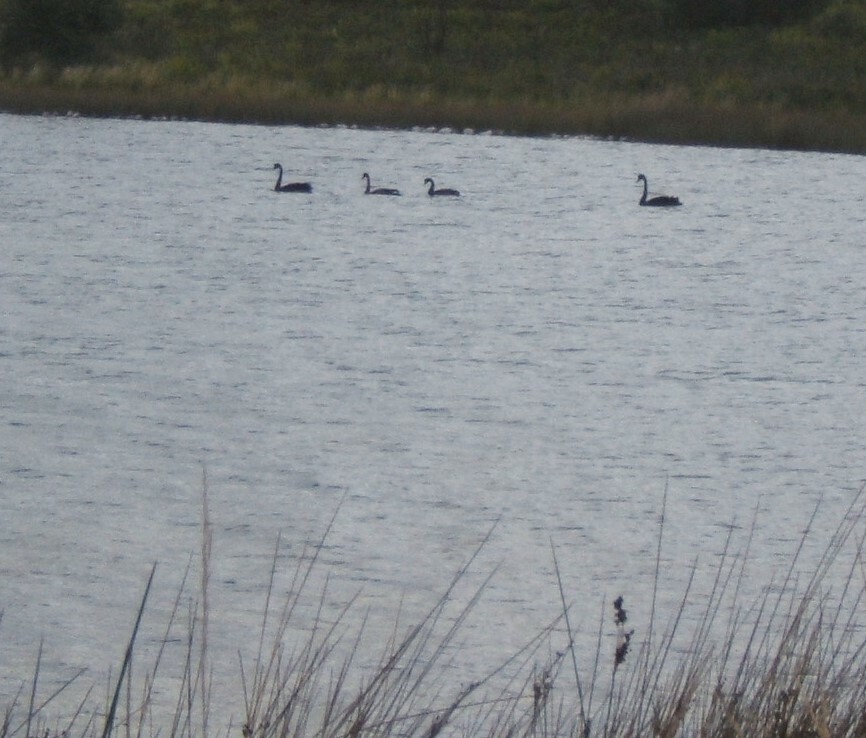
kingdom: Animalia
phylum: Chordata
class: Aves
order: Anseriformes
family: Anatidae
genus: Cygnus
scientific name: Cygnus atratus
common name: Black swan
